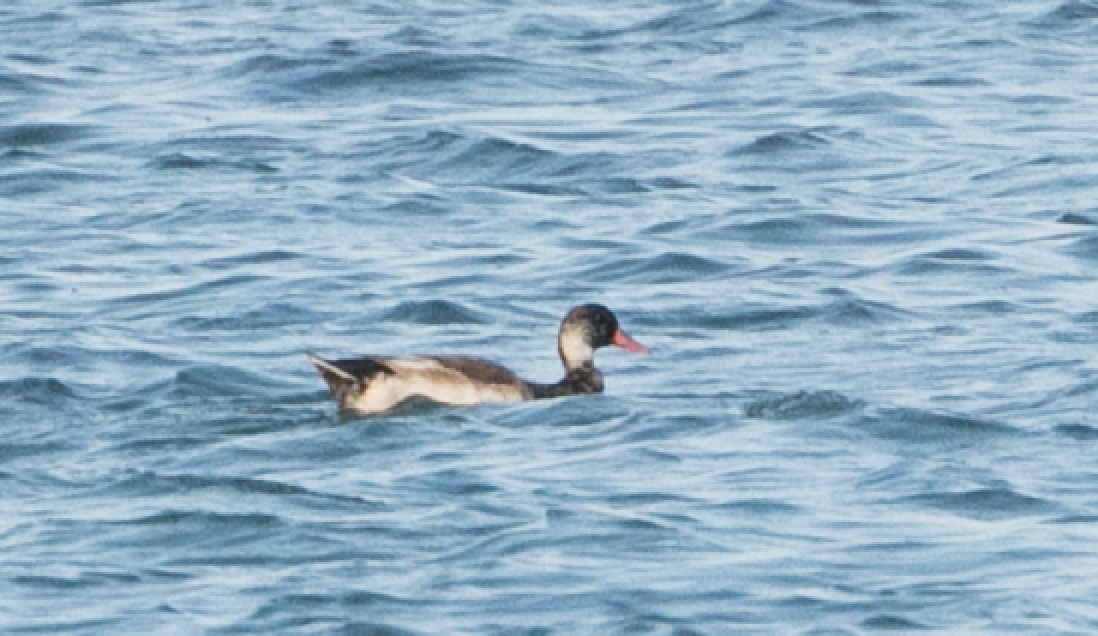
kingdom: Animalia
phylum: Chordata
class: Aves
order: Anseriformes
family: Anatidae
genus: Netta
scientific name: Netta rufina
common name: Red-crested pochard
